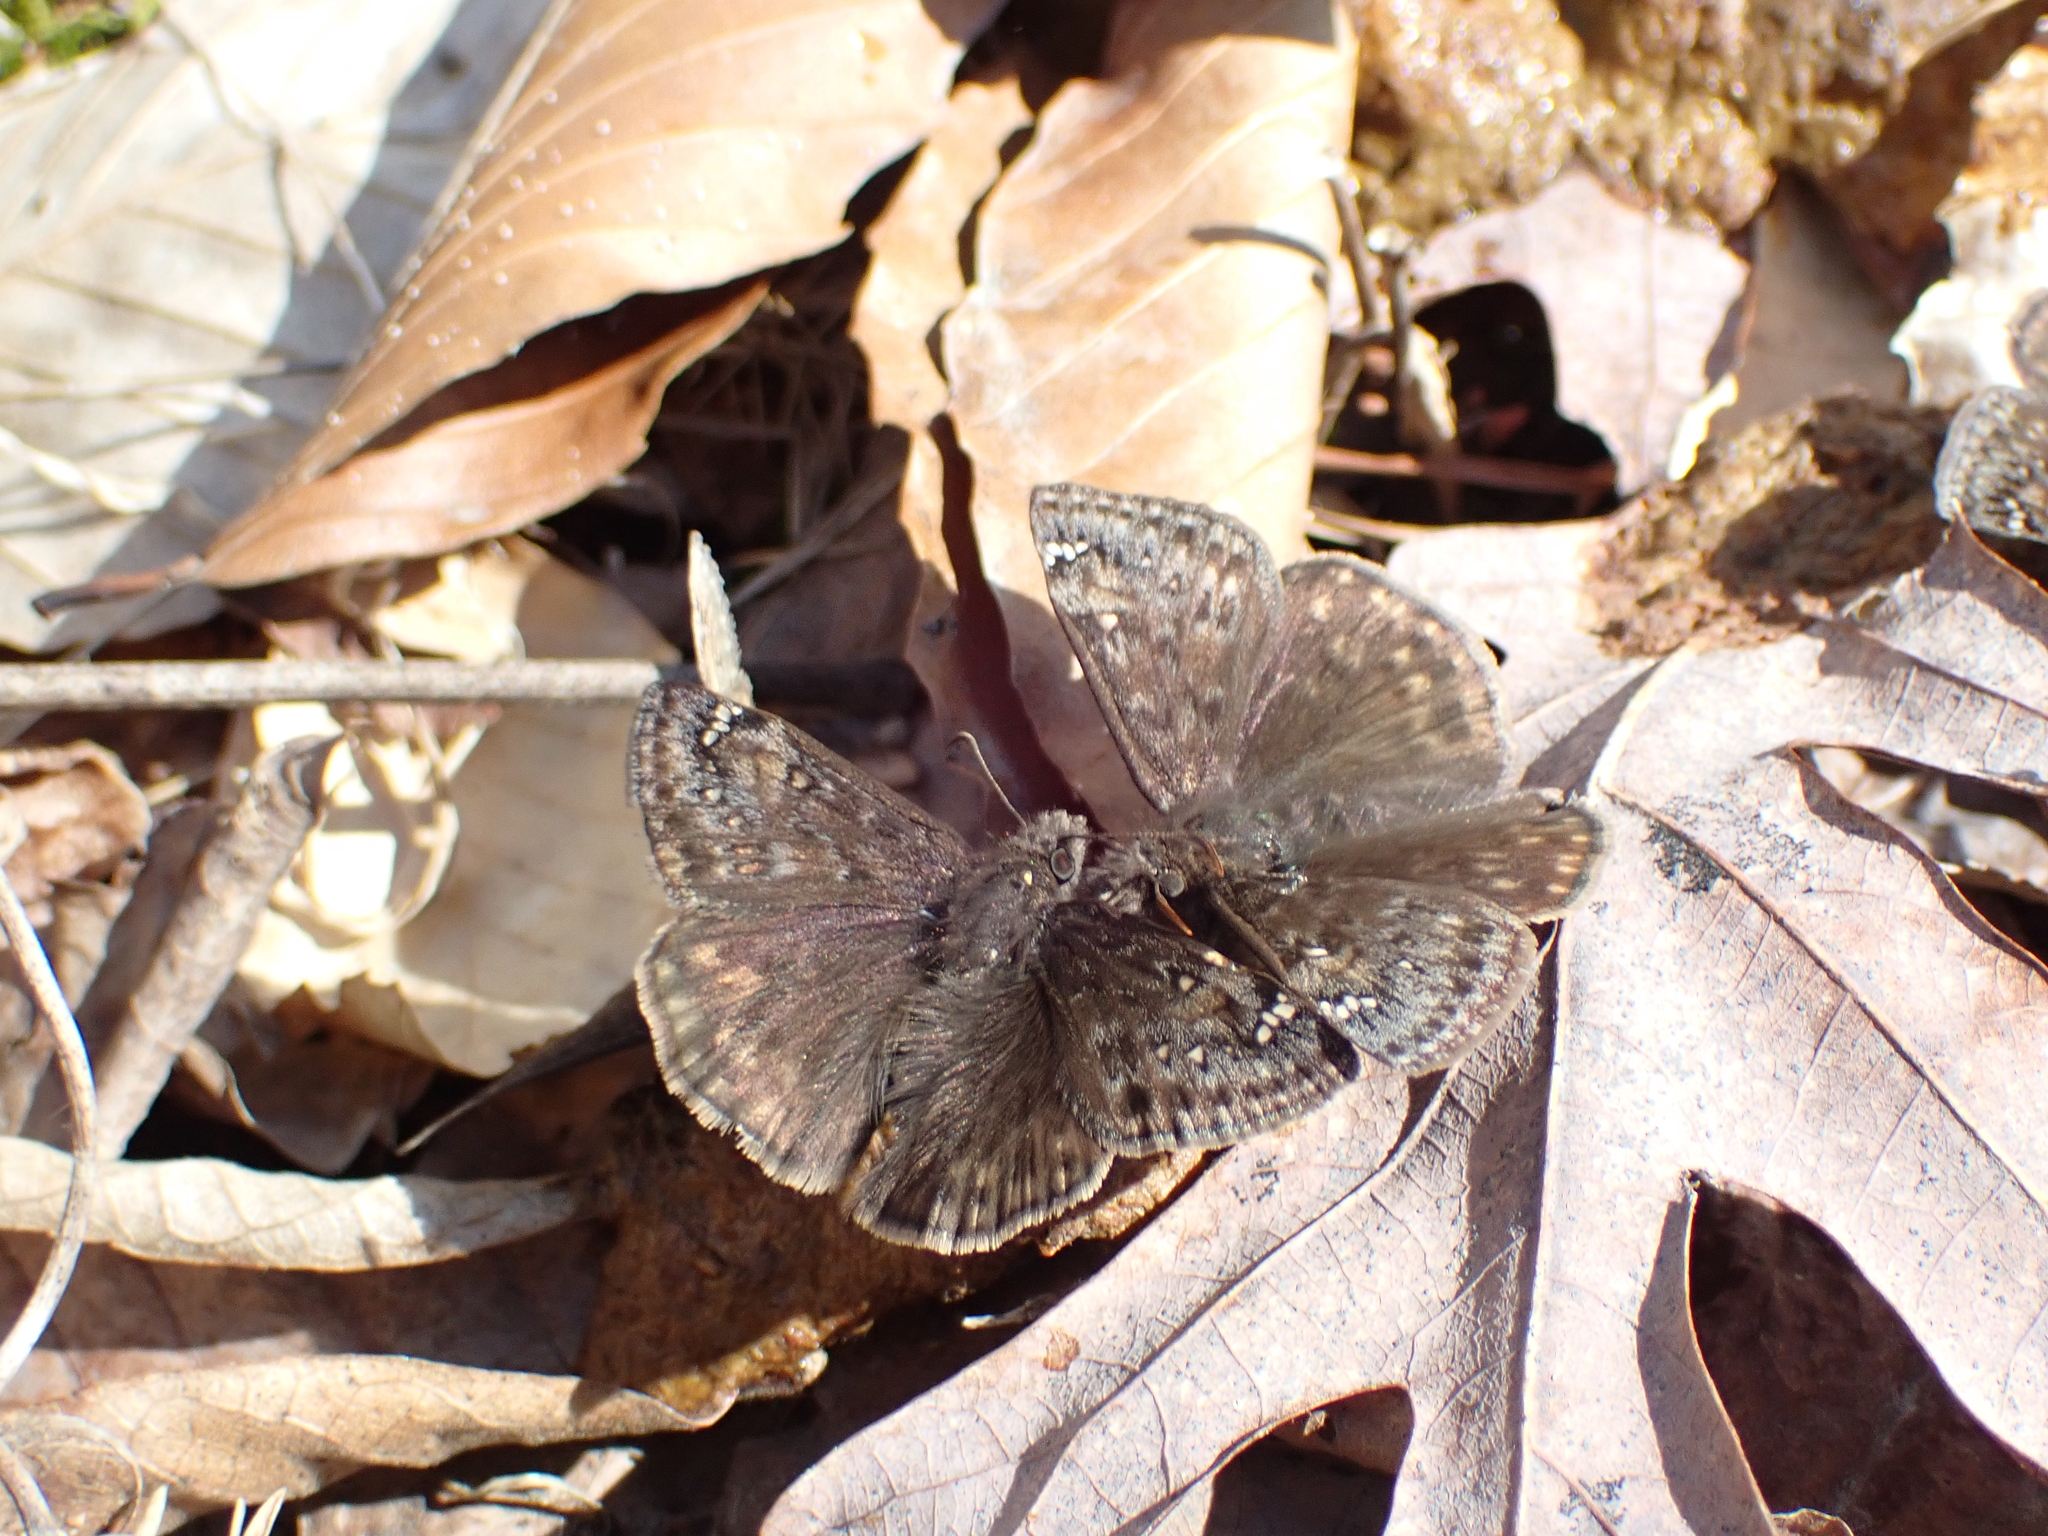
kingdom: Animalia
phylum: Arthropoda
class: Insecta
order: Lepidoptera
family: Hesperiidae
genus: Erynnis
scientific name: Erynnis juvenalis
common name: Juvenal's duskywing
